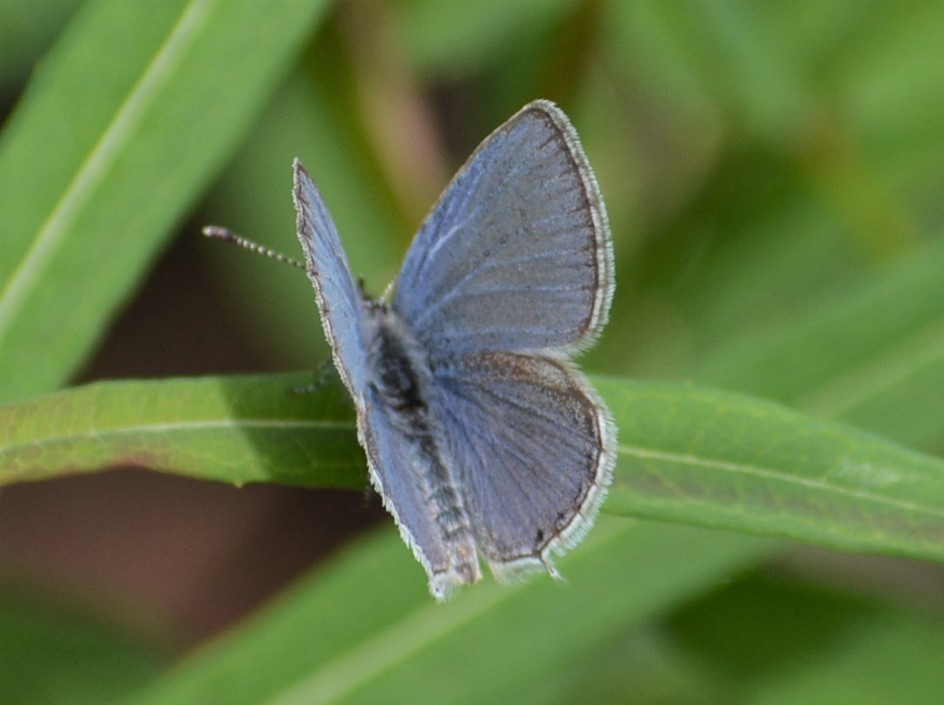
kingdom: Animalia
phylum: Arthropoda
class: Insecta
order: Lepidoptera
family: Lycaenidae
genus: Elkalyce
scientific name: Elkalyce amyntula
